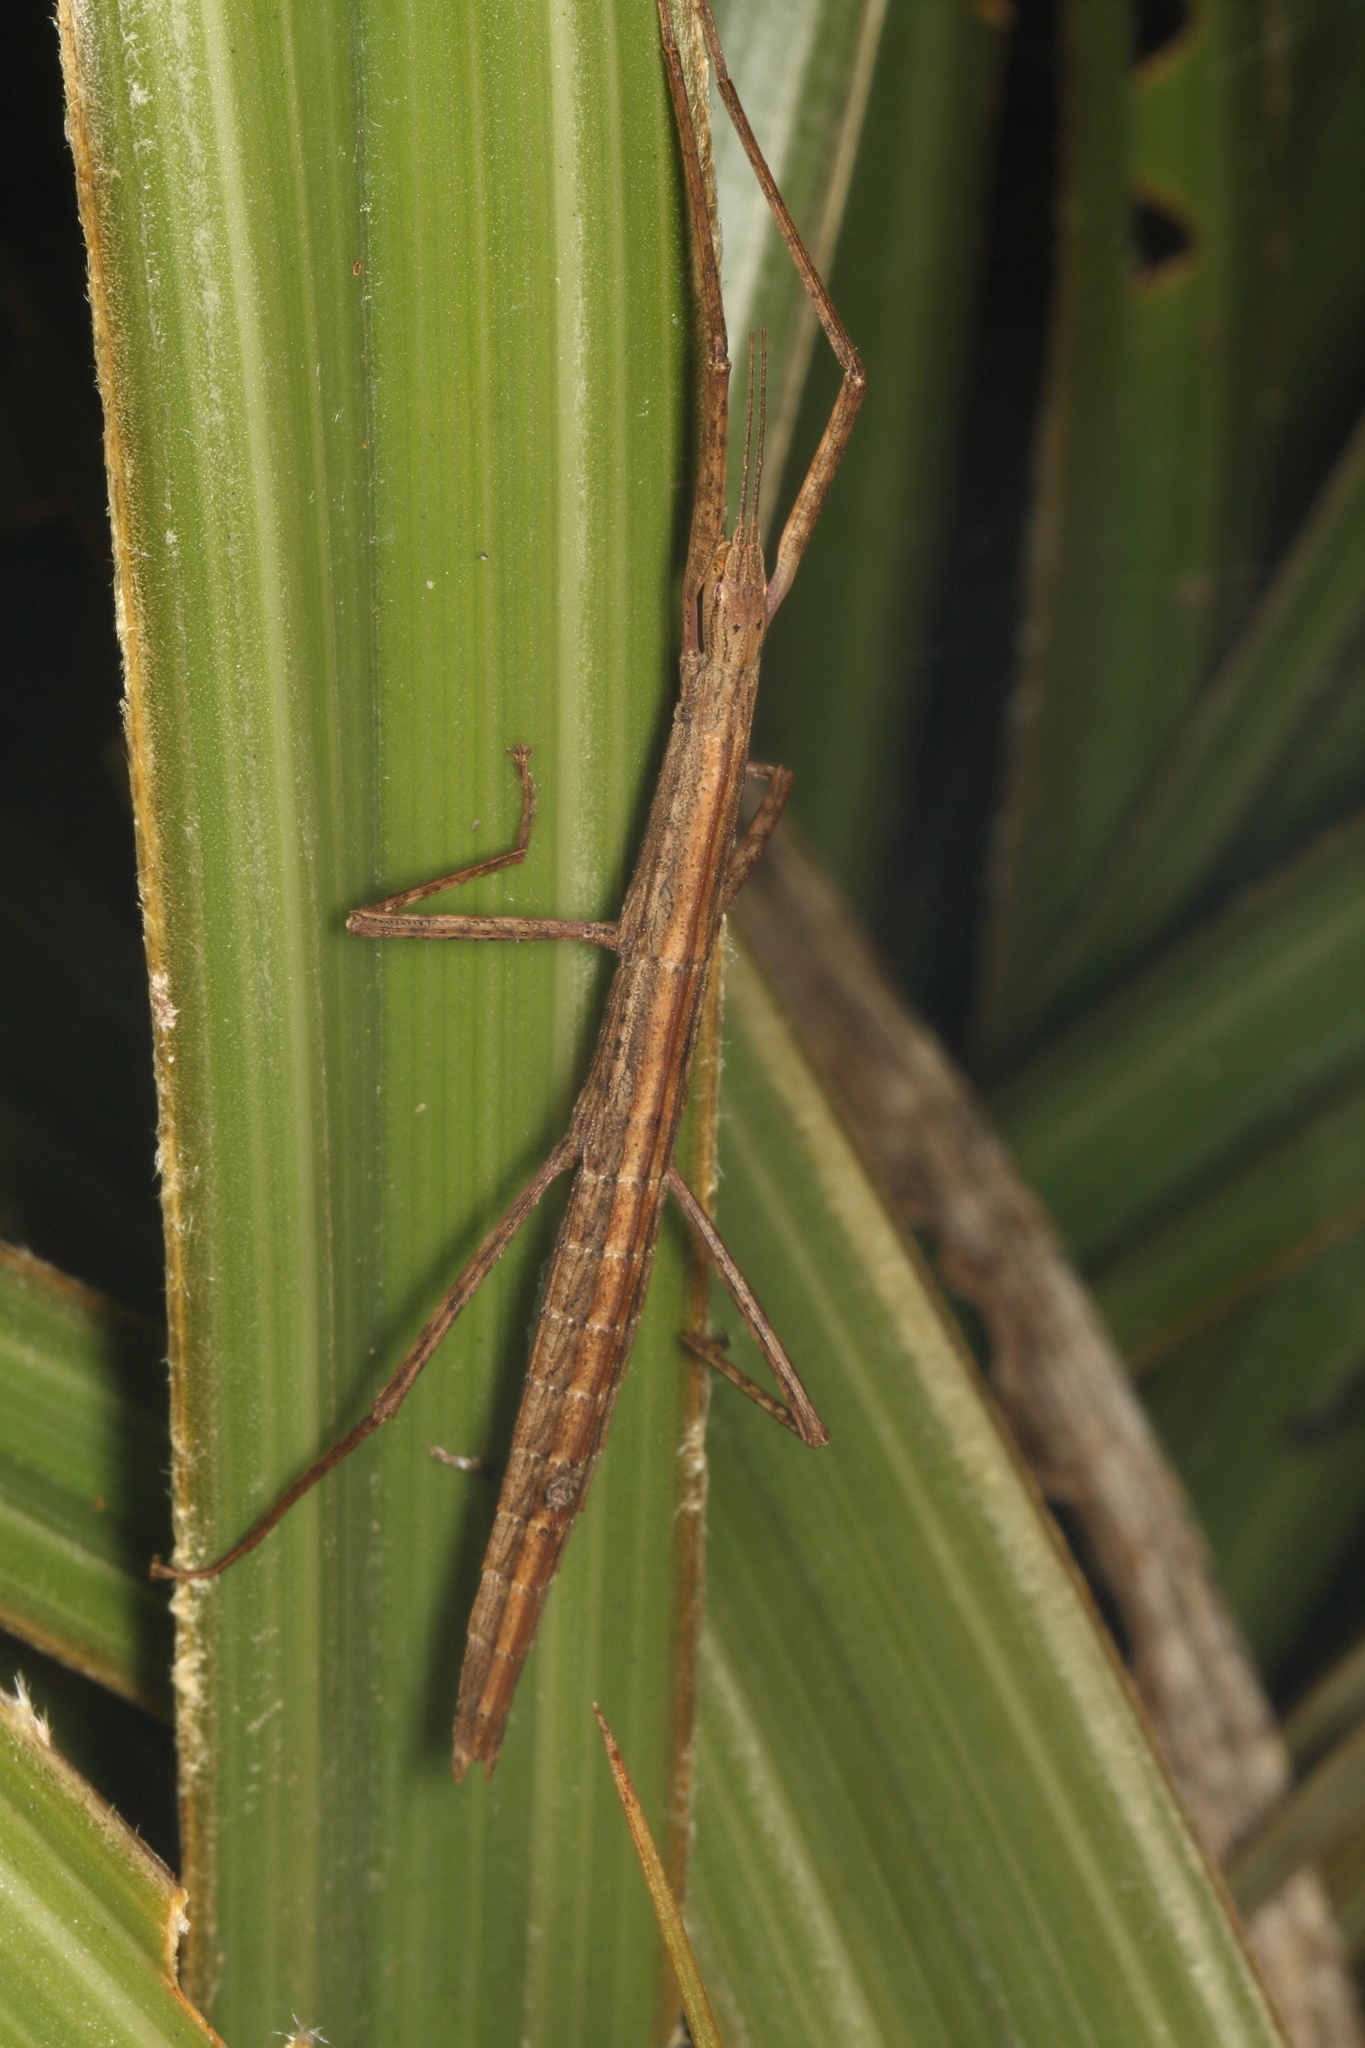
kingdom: Animalia
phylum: Arthropoda
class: Insecta
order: Phasmida
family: Phasmatidae
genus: Tectarchus
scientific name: Tectarchus huttoni
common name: The common ridge-backed stick insect
